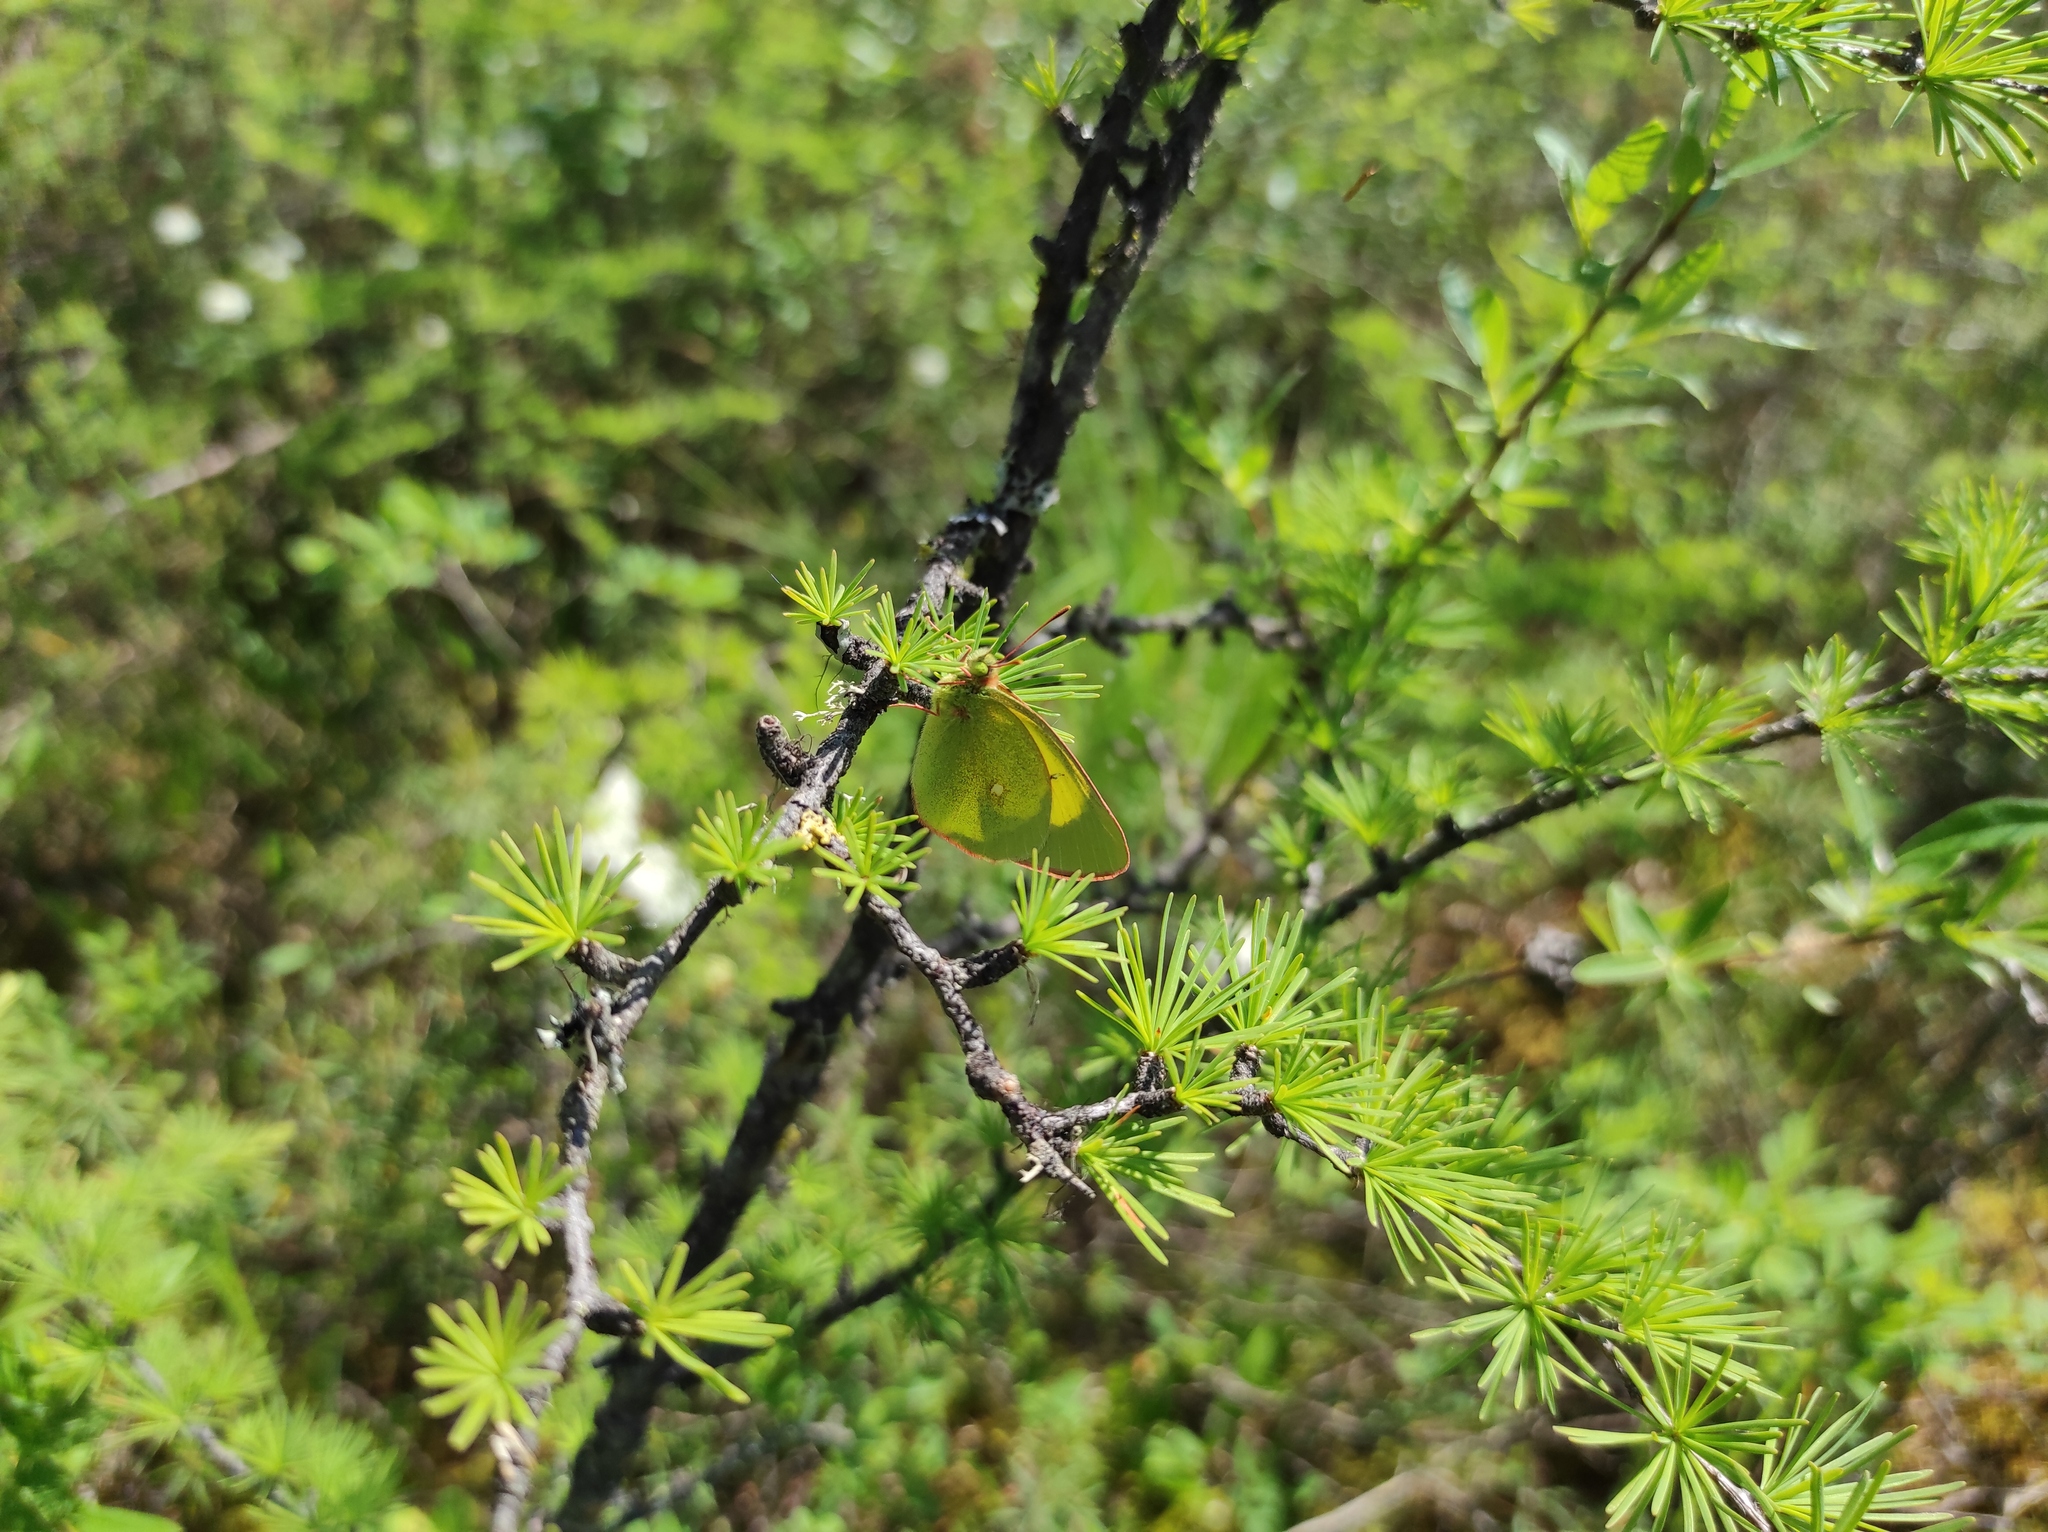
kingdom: Animalia
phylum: Arthropoda
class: Insecta
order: Lepidoptera
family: Pieridae
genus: Colias
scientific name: Colias palaeno
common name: Moorland clouded yellow
